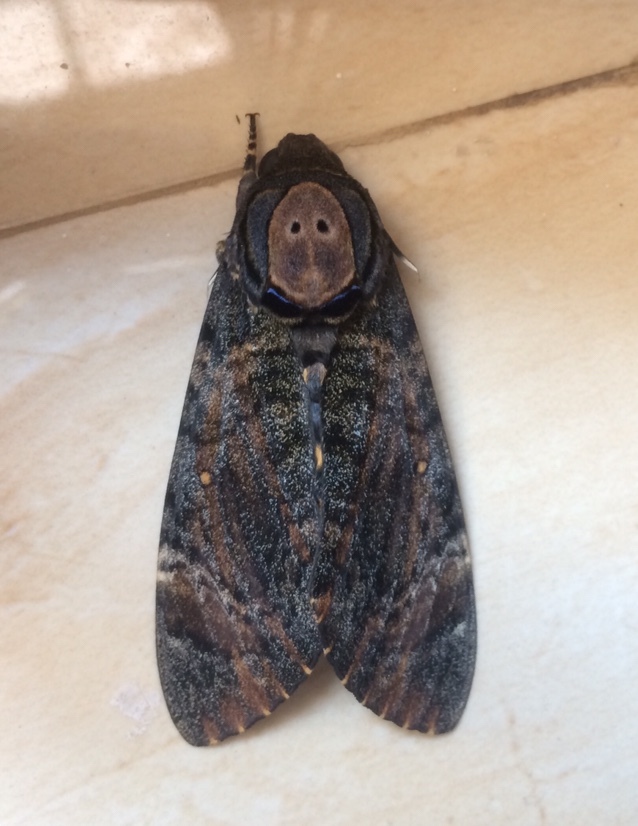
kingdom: Animalia
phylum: Arthropoda
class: Insecta
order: Lepidoptera
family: Sphingidae
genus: Acherontia
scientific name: Acherontia styx
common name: Death's-head hawk moth
